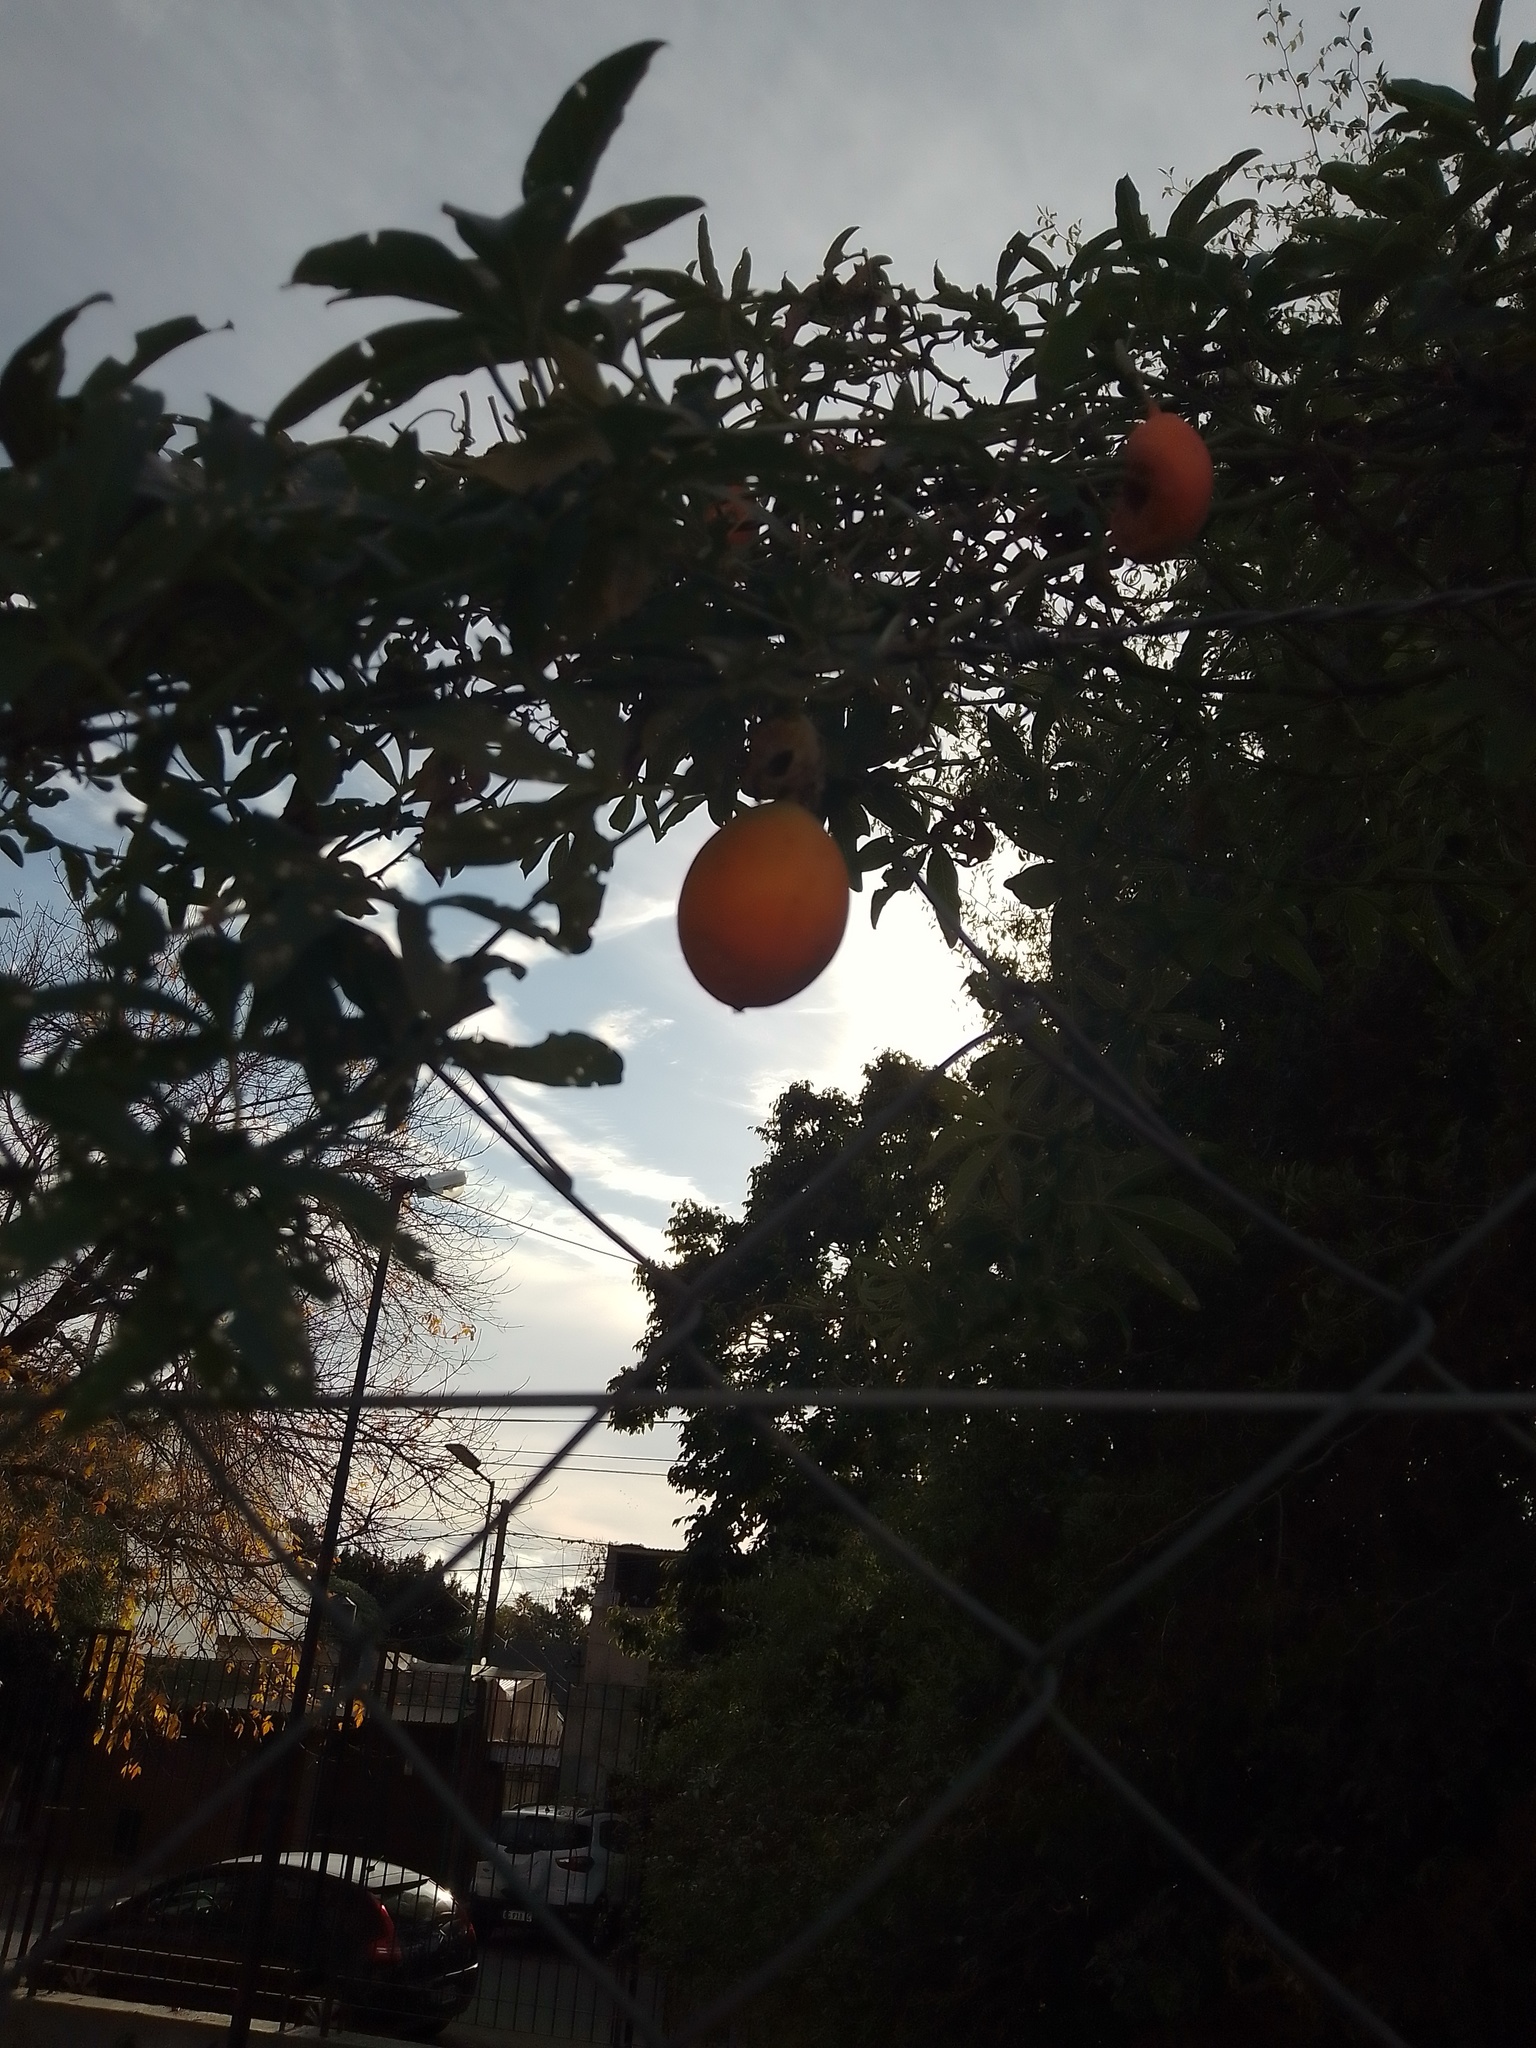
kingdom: Plantae
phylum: Tracheophyta
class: Magnoliopsida
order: Malpighiales
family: Passifloraceae
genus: Passiflora
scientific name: Passiflora caerulea
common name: Blue passionflower
